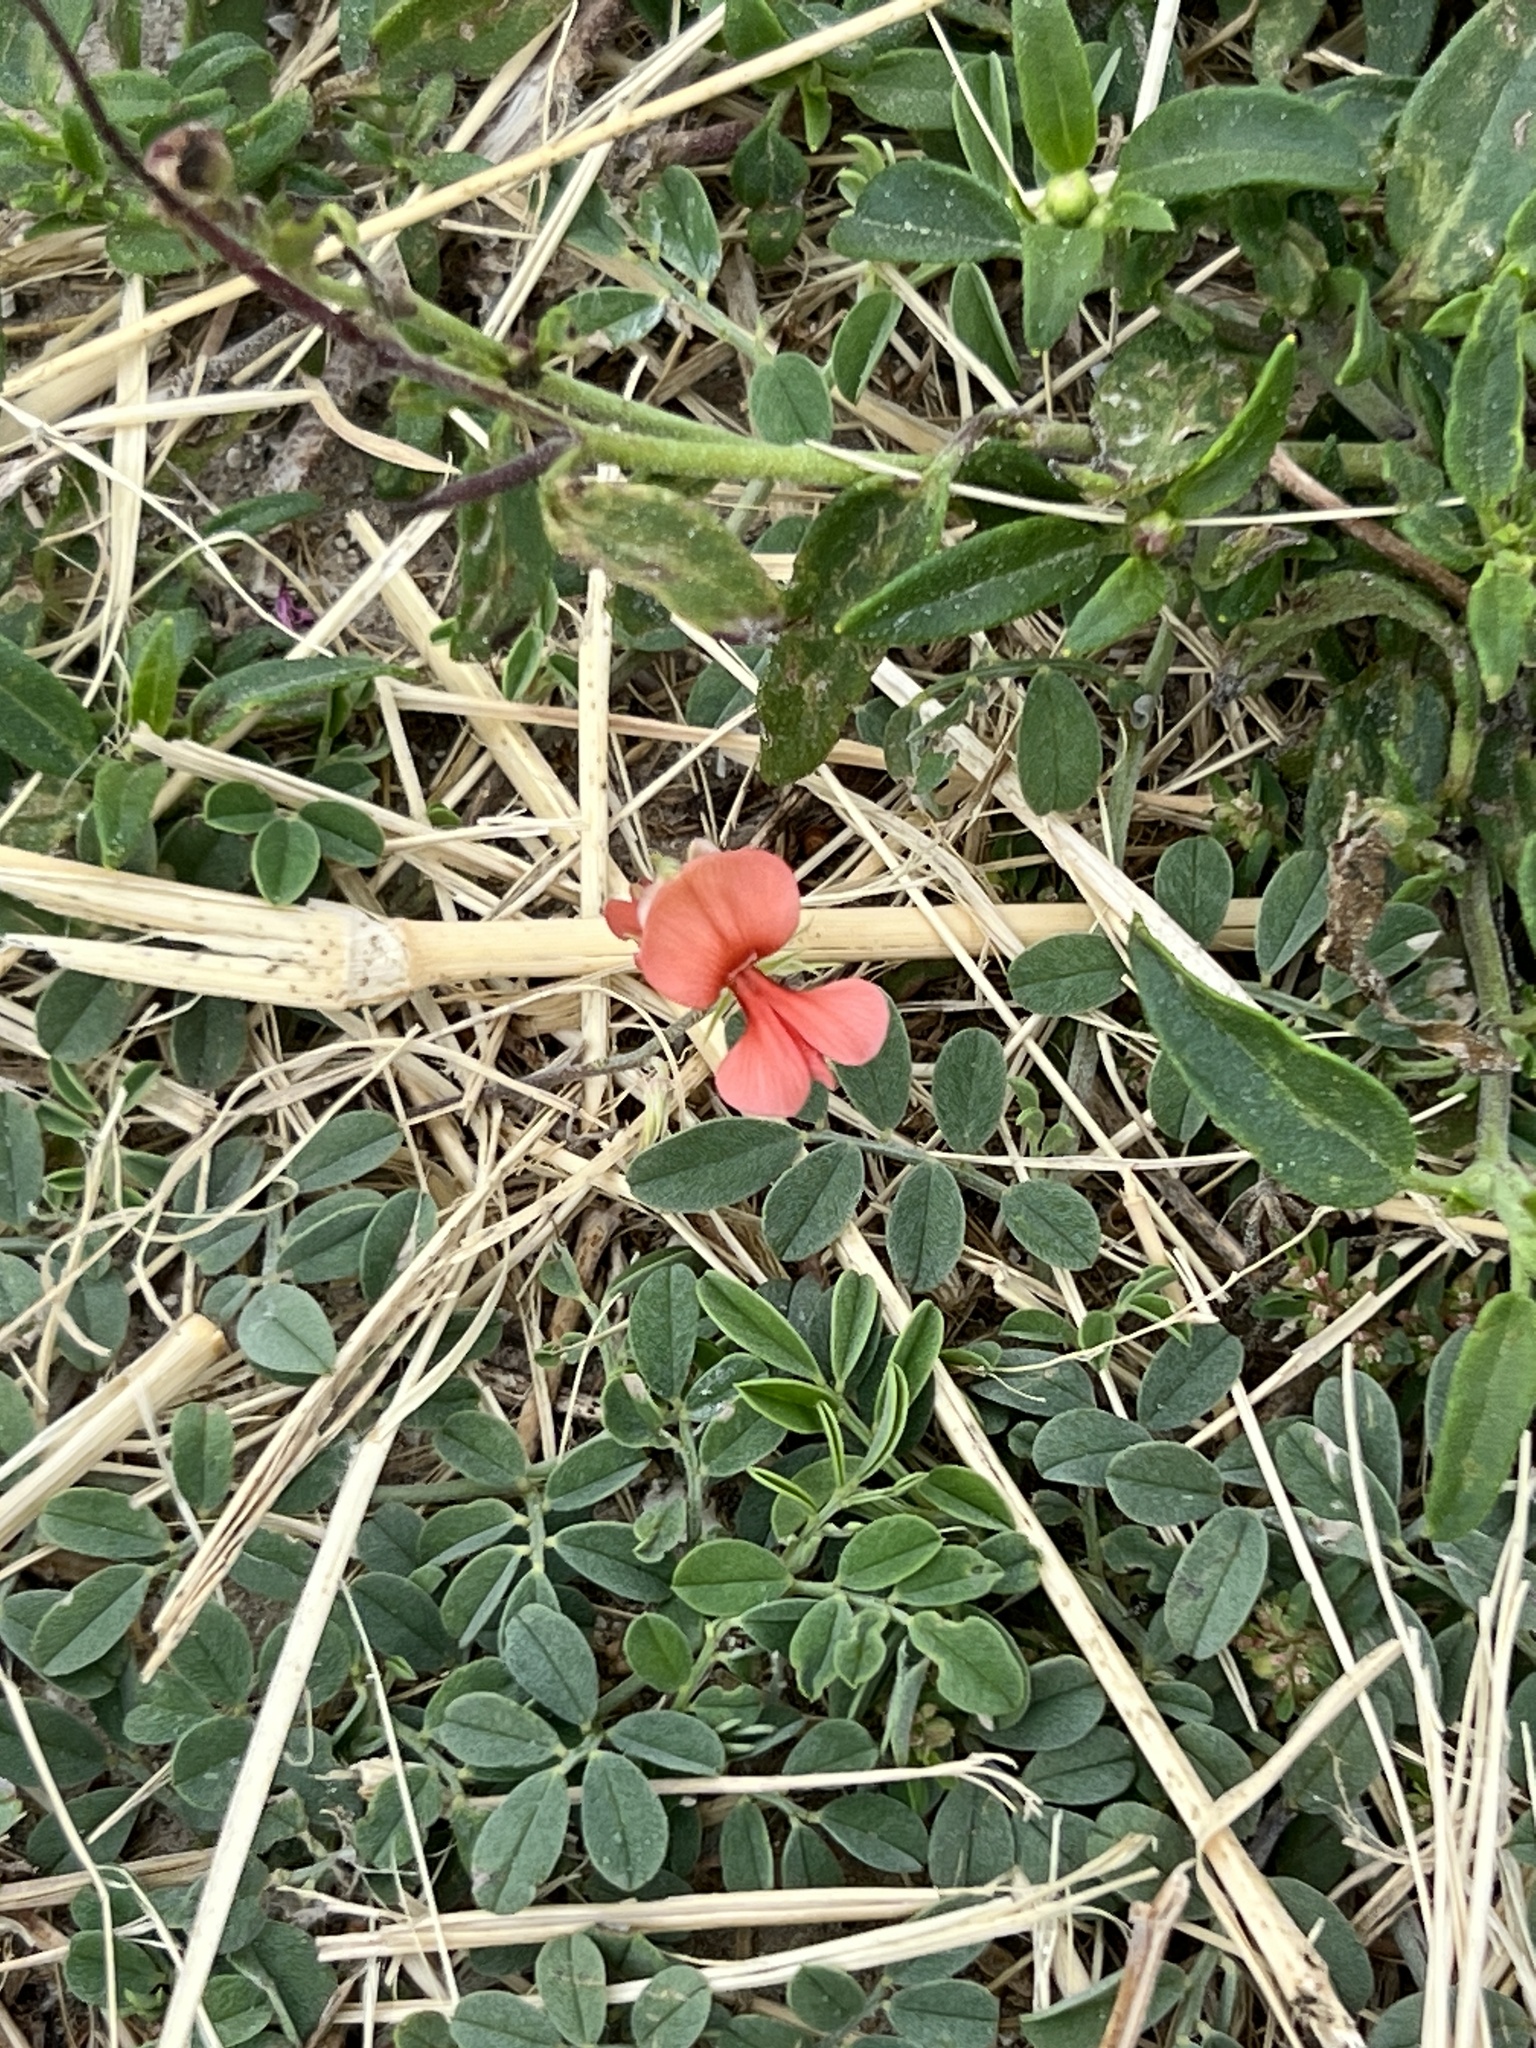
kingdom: Plantae
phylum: Tracheophyta
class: Magnoliopsida
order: Fabales
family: Fabaceae
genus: Indigofera
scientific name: Indigofera miniata
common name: Coast indigo
